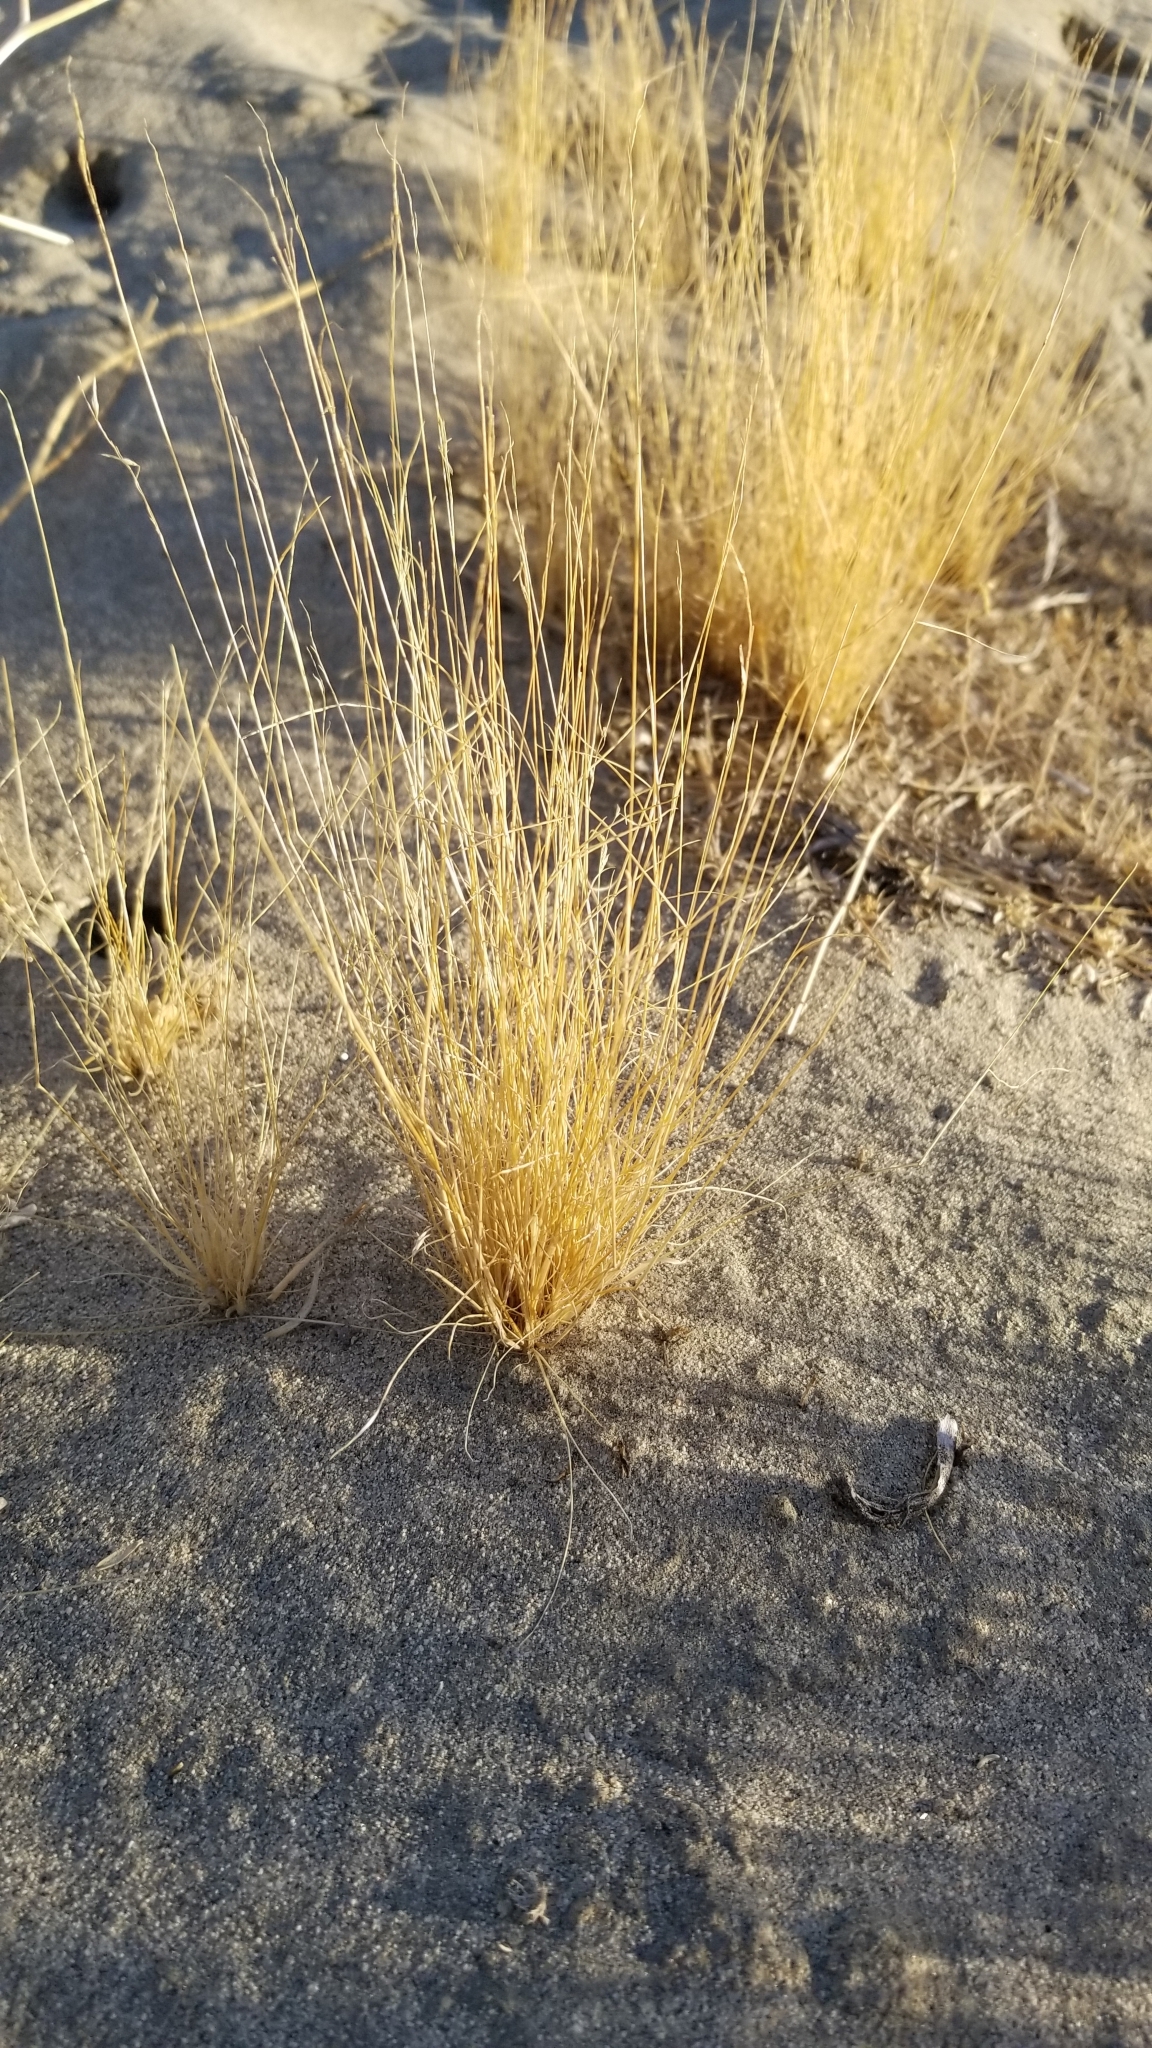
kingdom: Plantae
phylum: Tracheophyta
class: Liliopsida
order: Poales
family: Poaceae
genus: Schismus
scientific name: Schismus barbatus
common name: Kelch-grass
